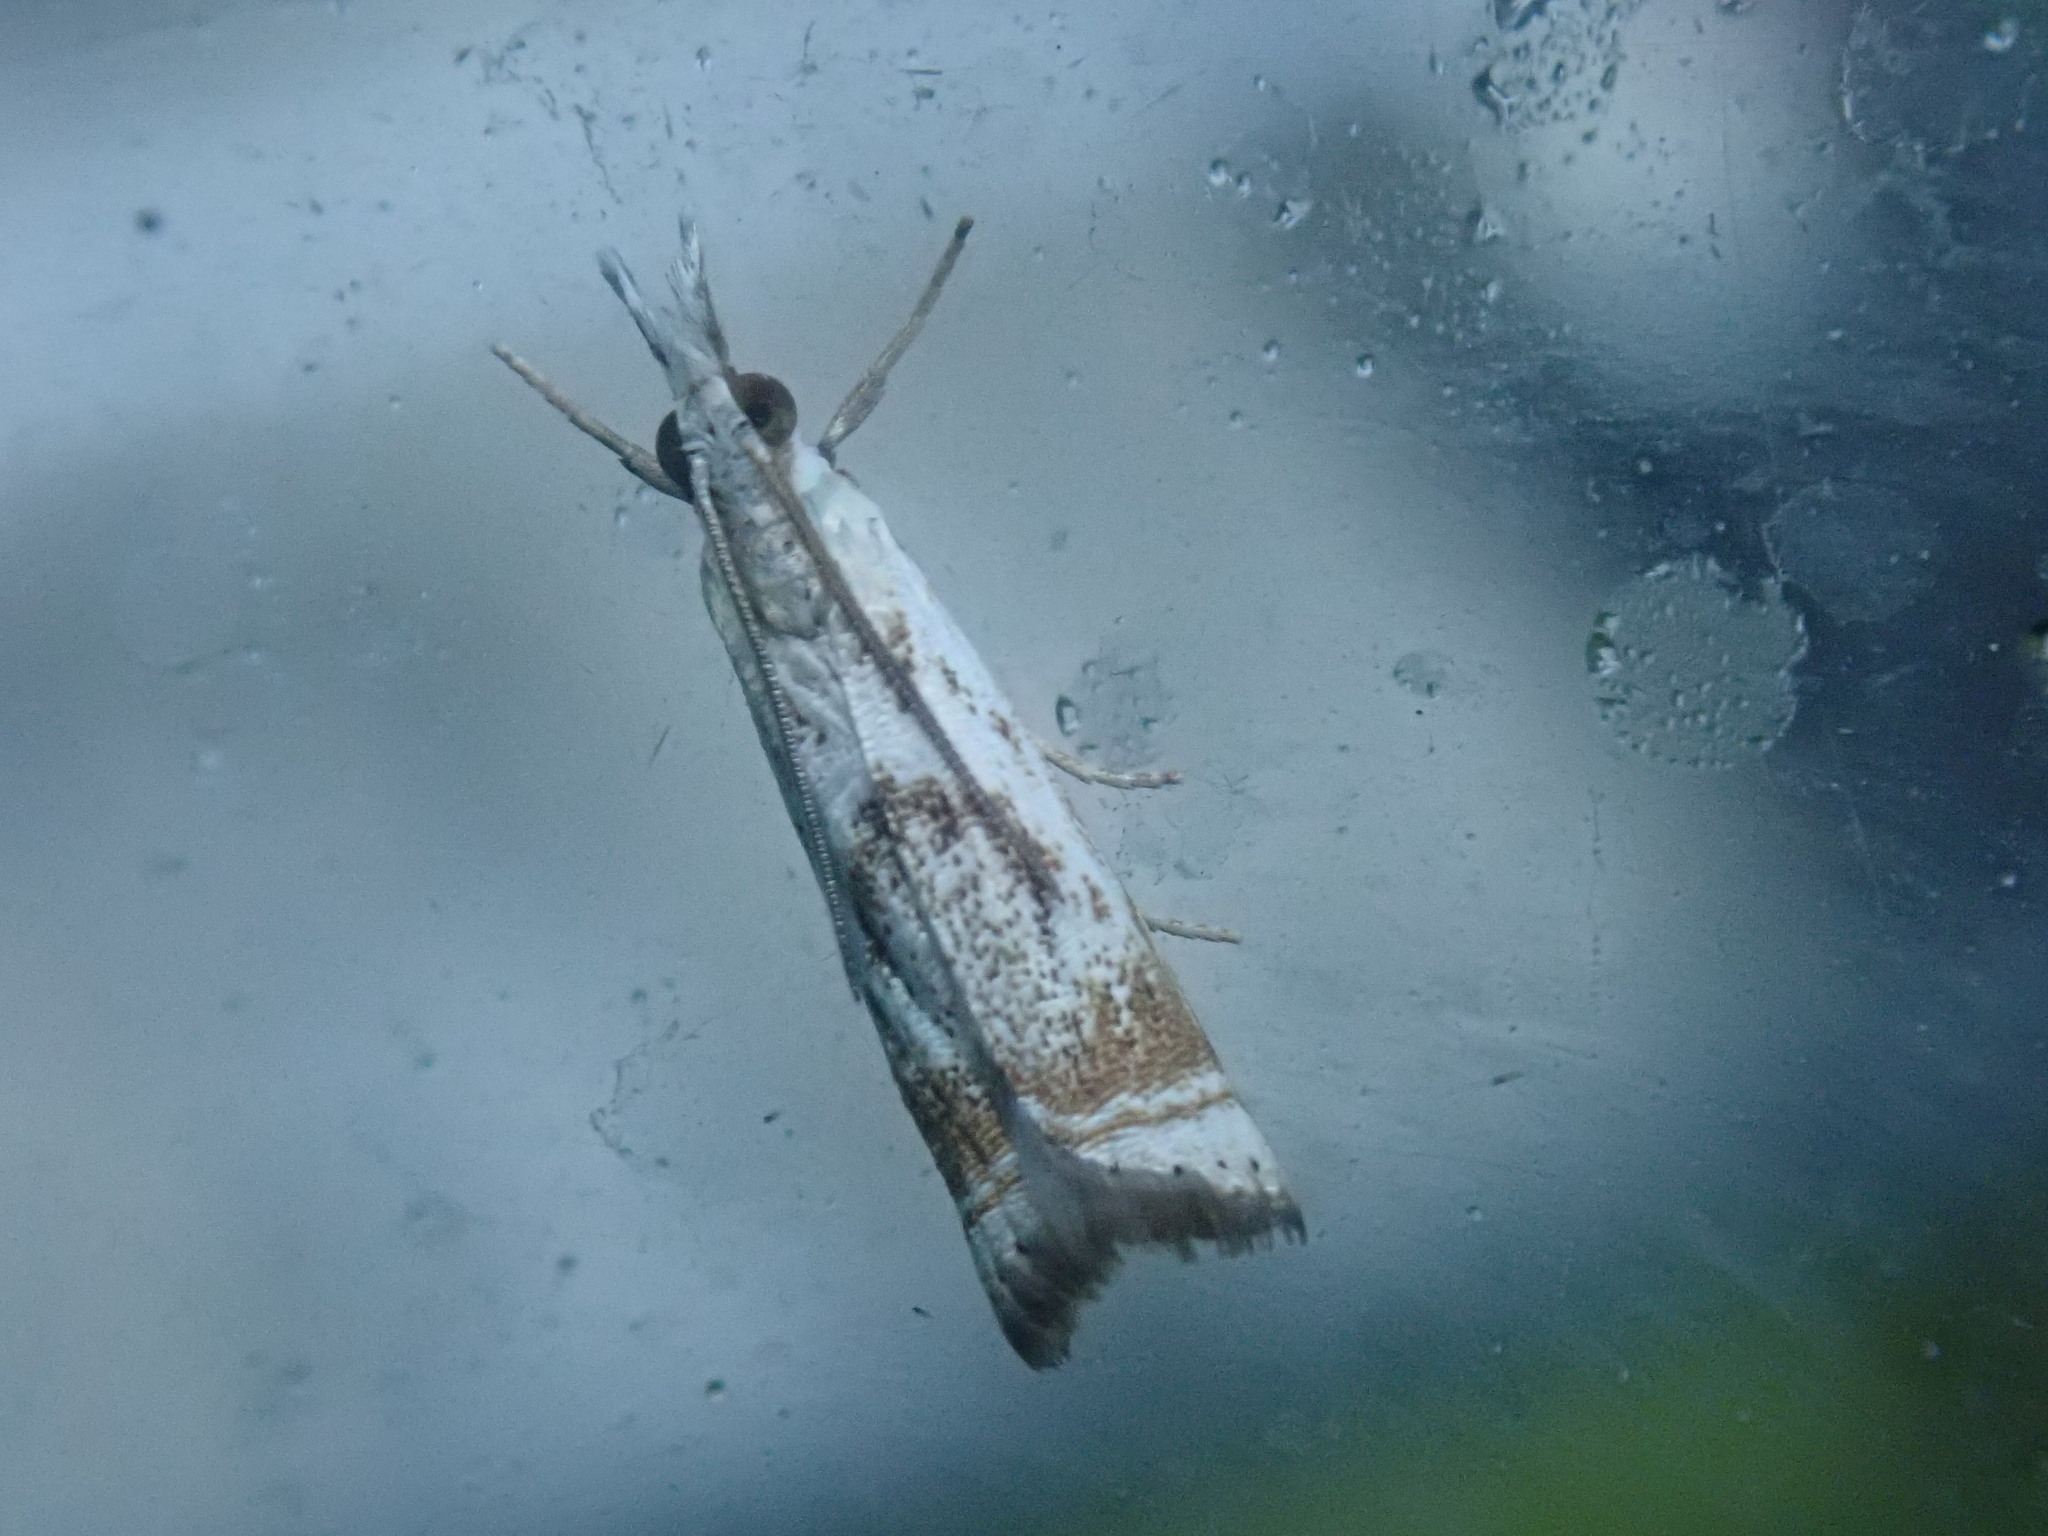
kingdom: Animalia
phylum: Arthropoda
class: Insecta
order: Lepidoptera
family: Crambidae
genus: Microcrambus
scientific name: Microcrambus elegans
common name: Elegant grass-veneer
